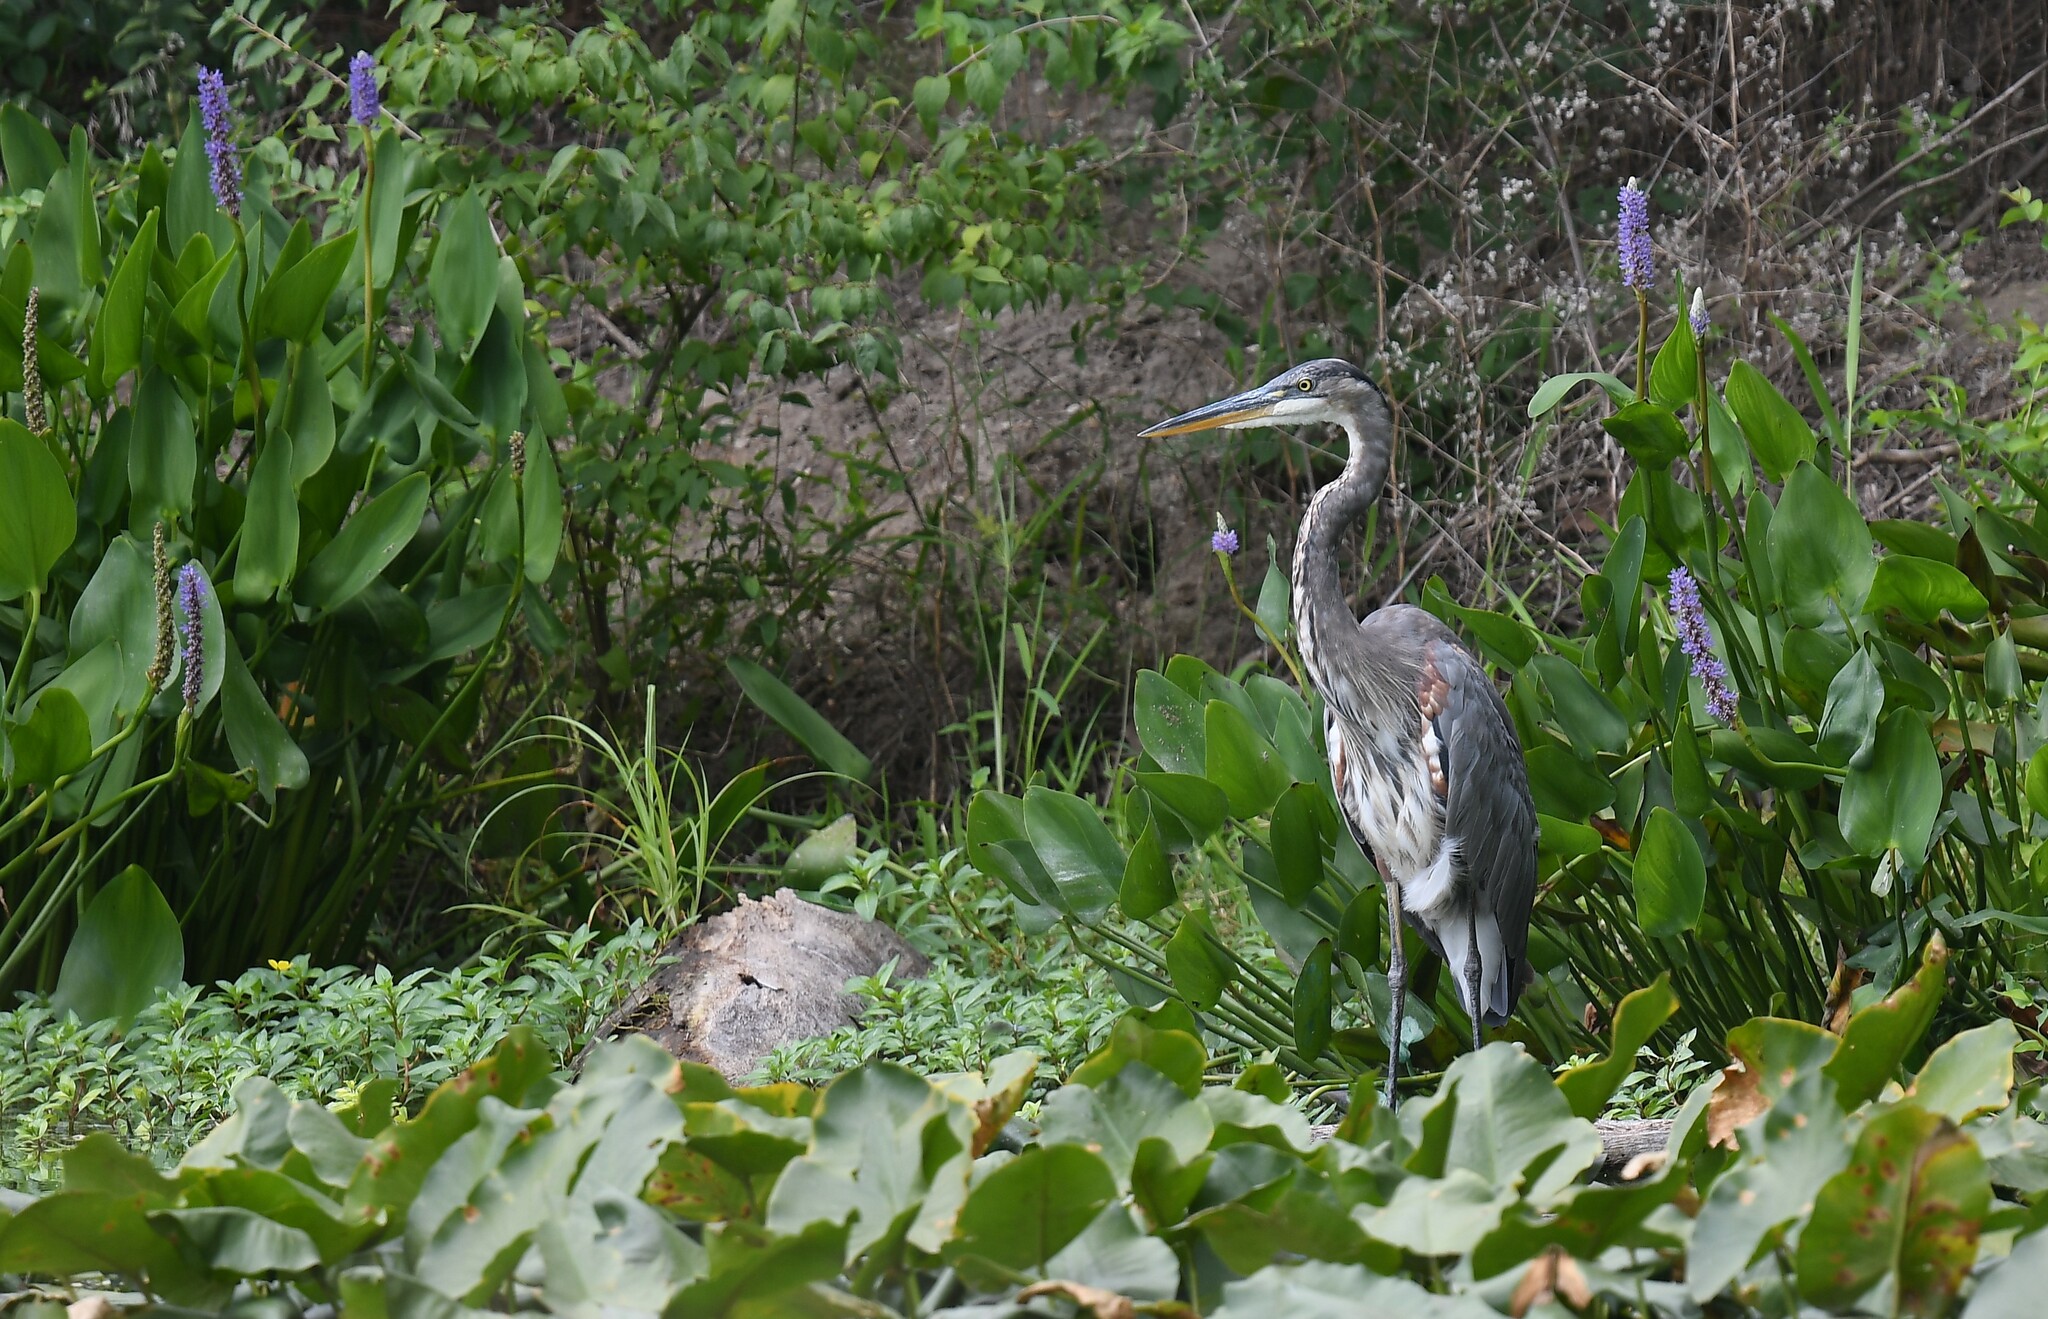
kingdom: Animalia
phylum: Chordata
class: Aves
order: Pelecaniformes
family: Ardeidae
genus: Ardea
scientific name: Ardea herodias
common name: Great blue heron
